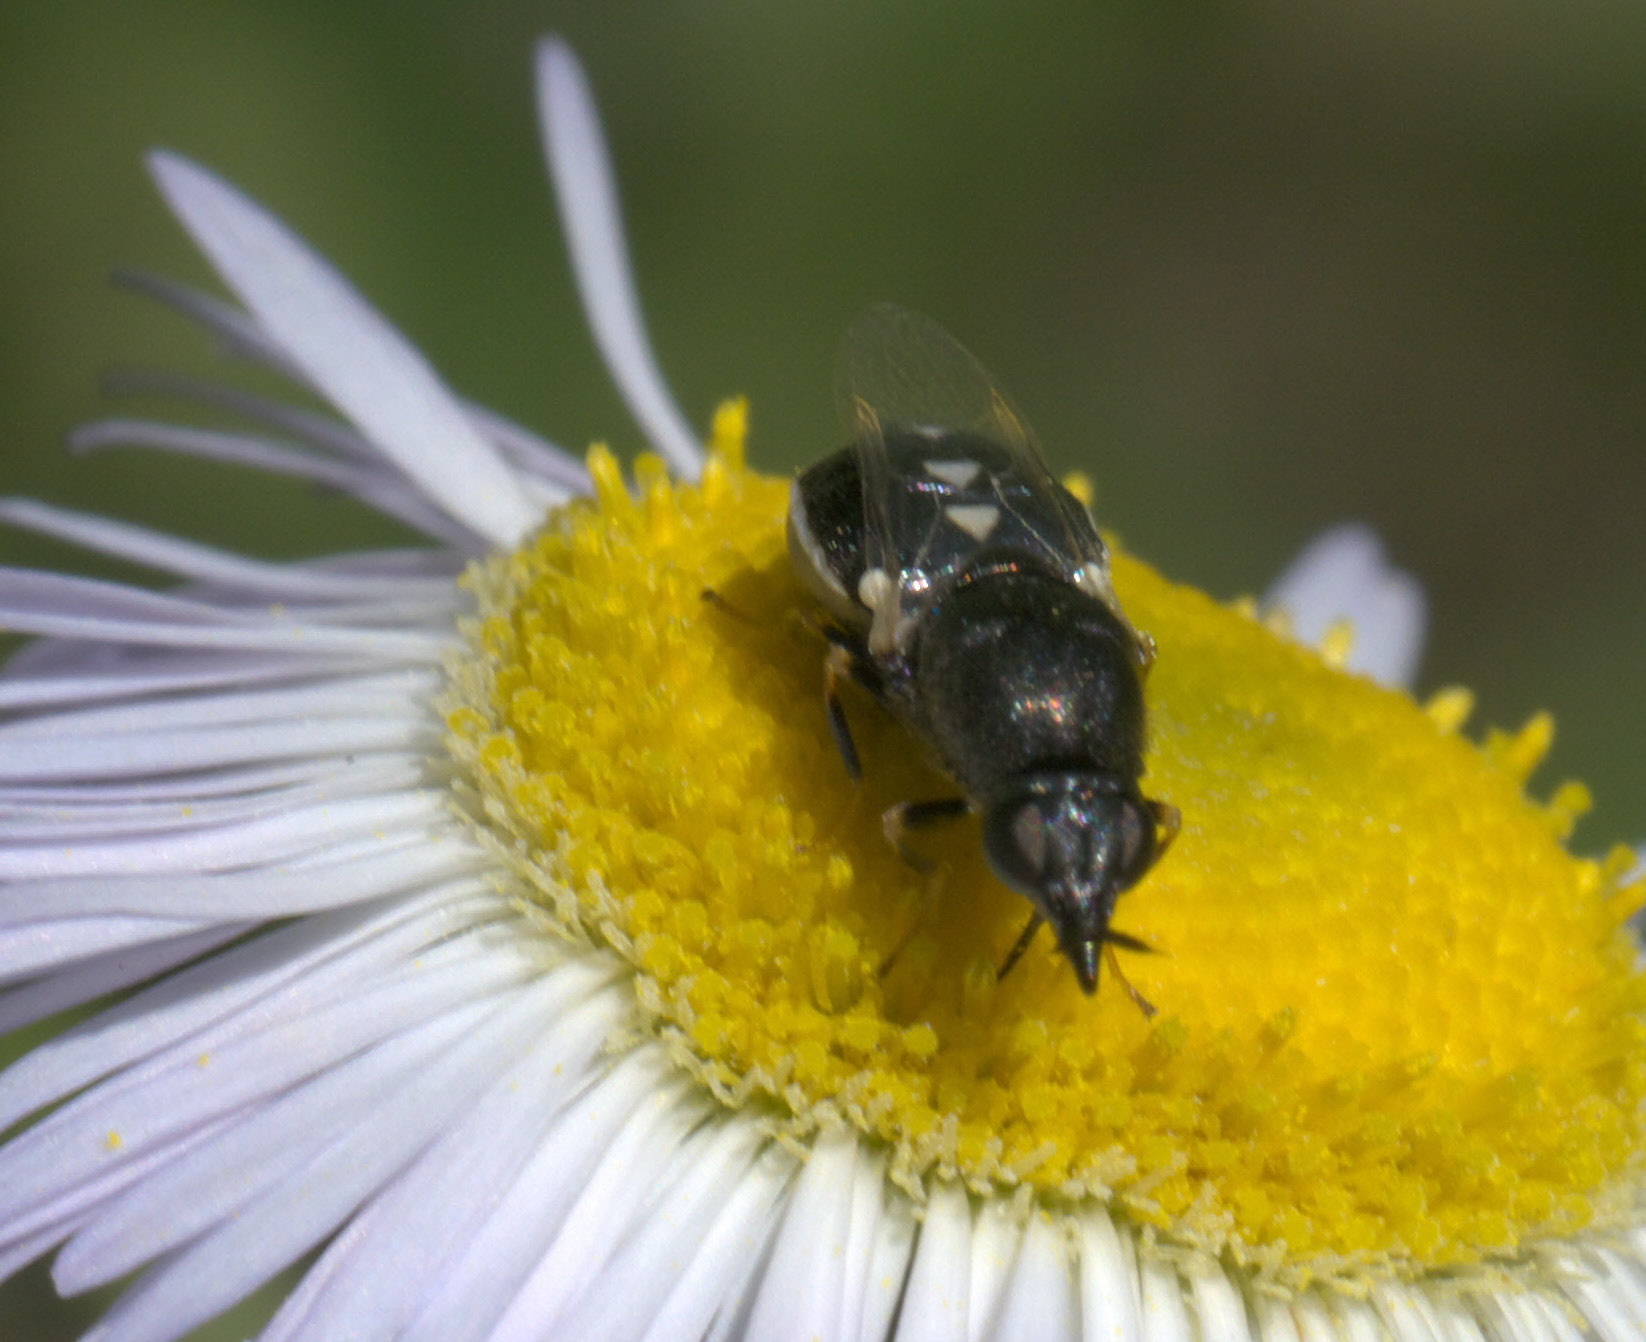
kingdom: Animalia
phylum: Arthropoda
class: Insecta
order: Diptera
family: Stratiomyidae
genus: Nemotelus
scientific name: Nemotelus kansensis
